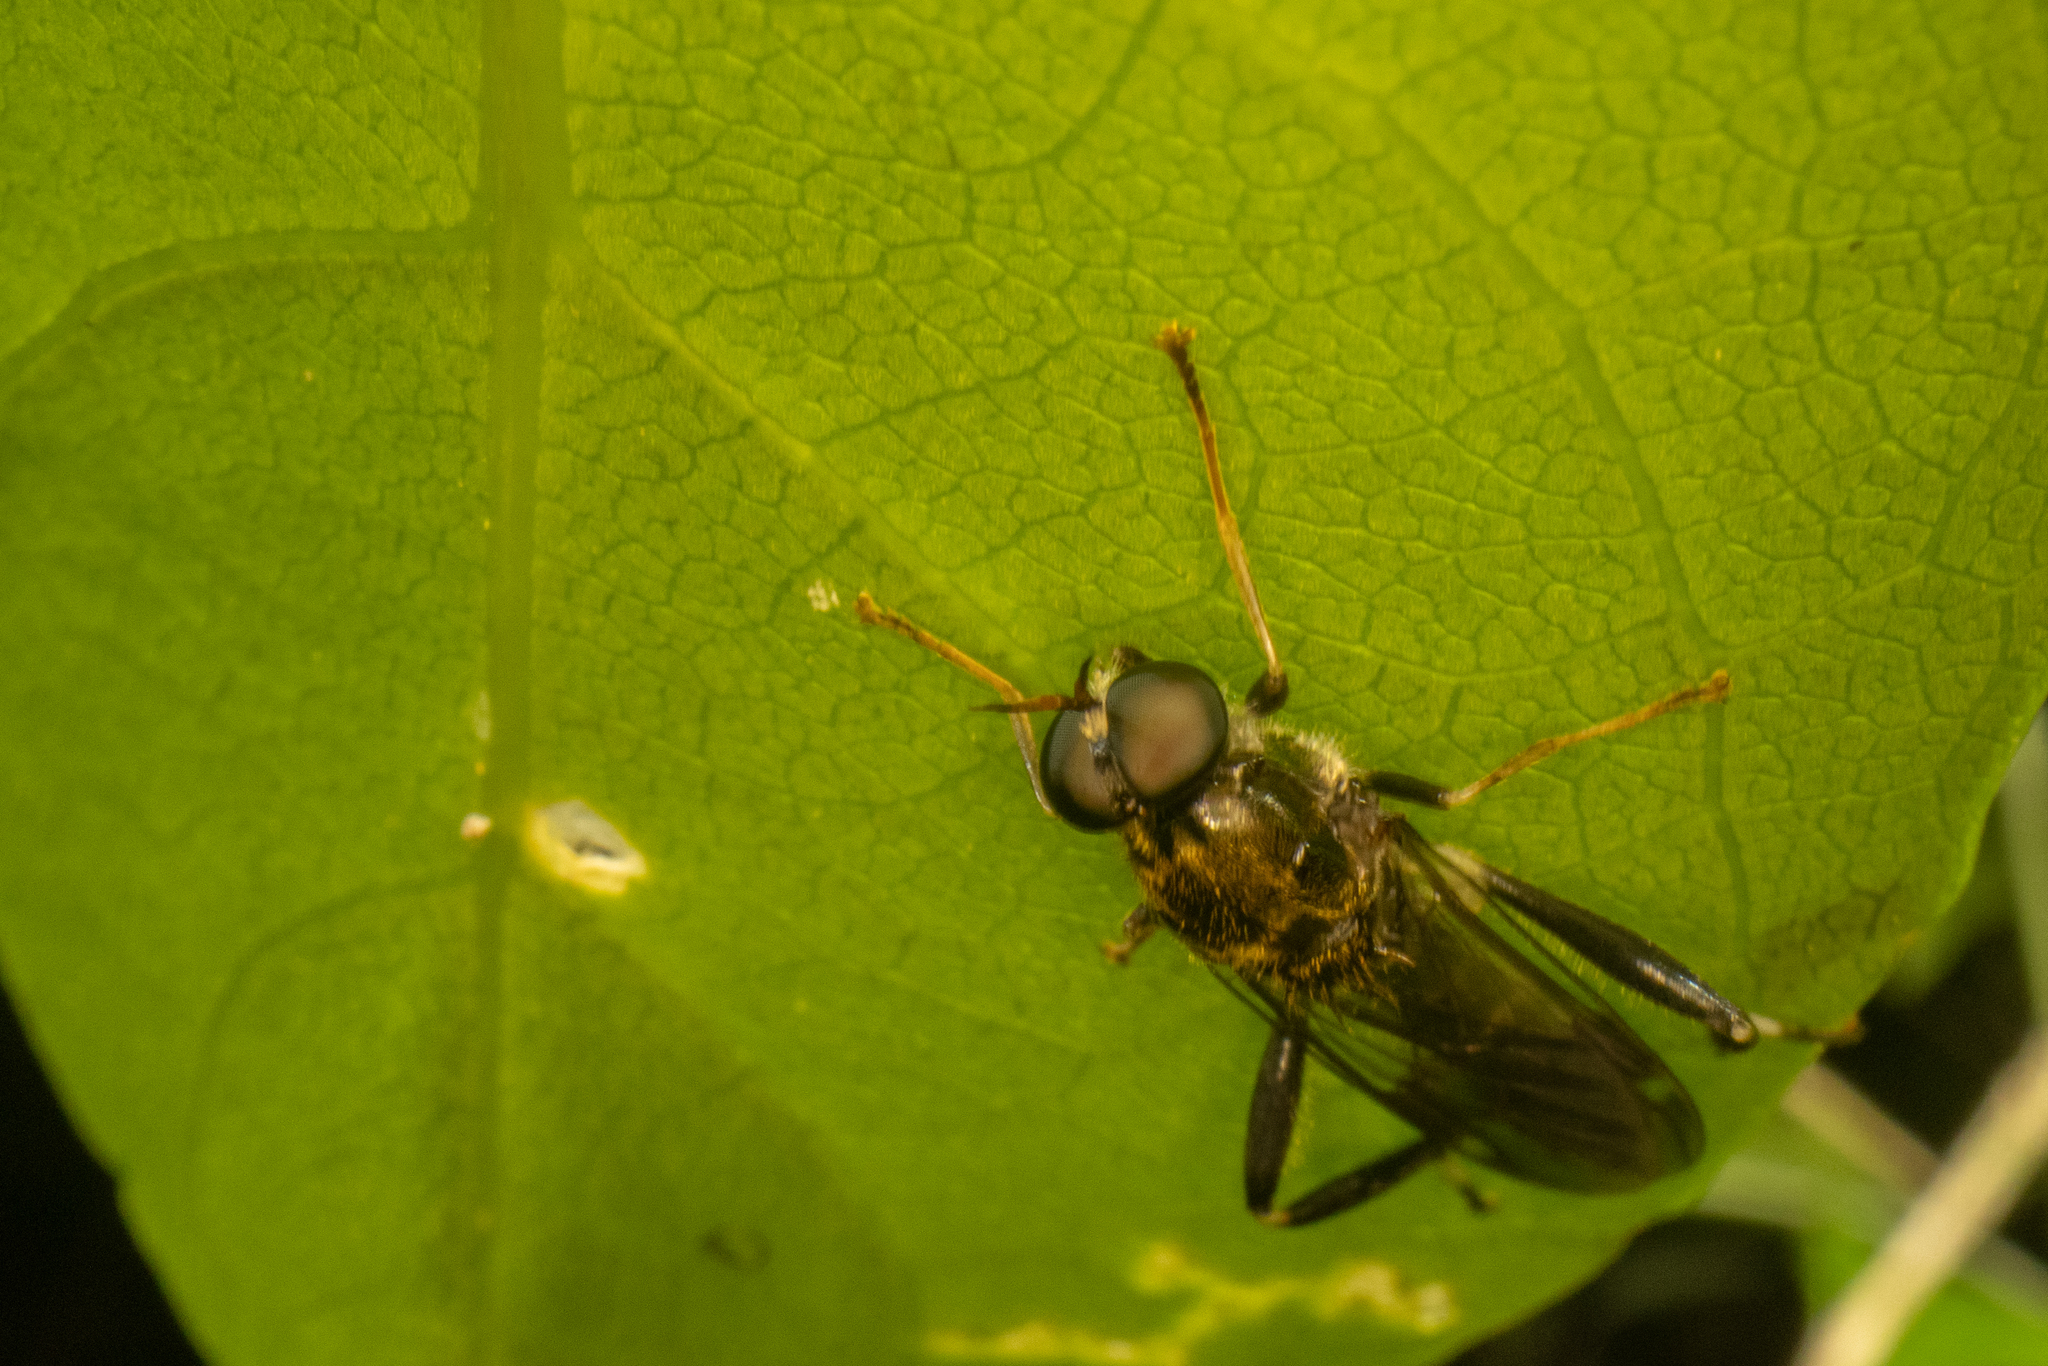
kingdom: Animalia
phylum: Arthropoda
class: Insecta
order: Diptera
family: Stratiomyidae
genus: Exaireta
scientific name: Exaireta spinigera
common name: Blue soldier fly
